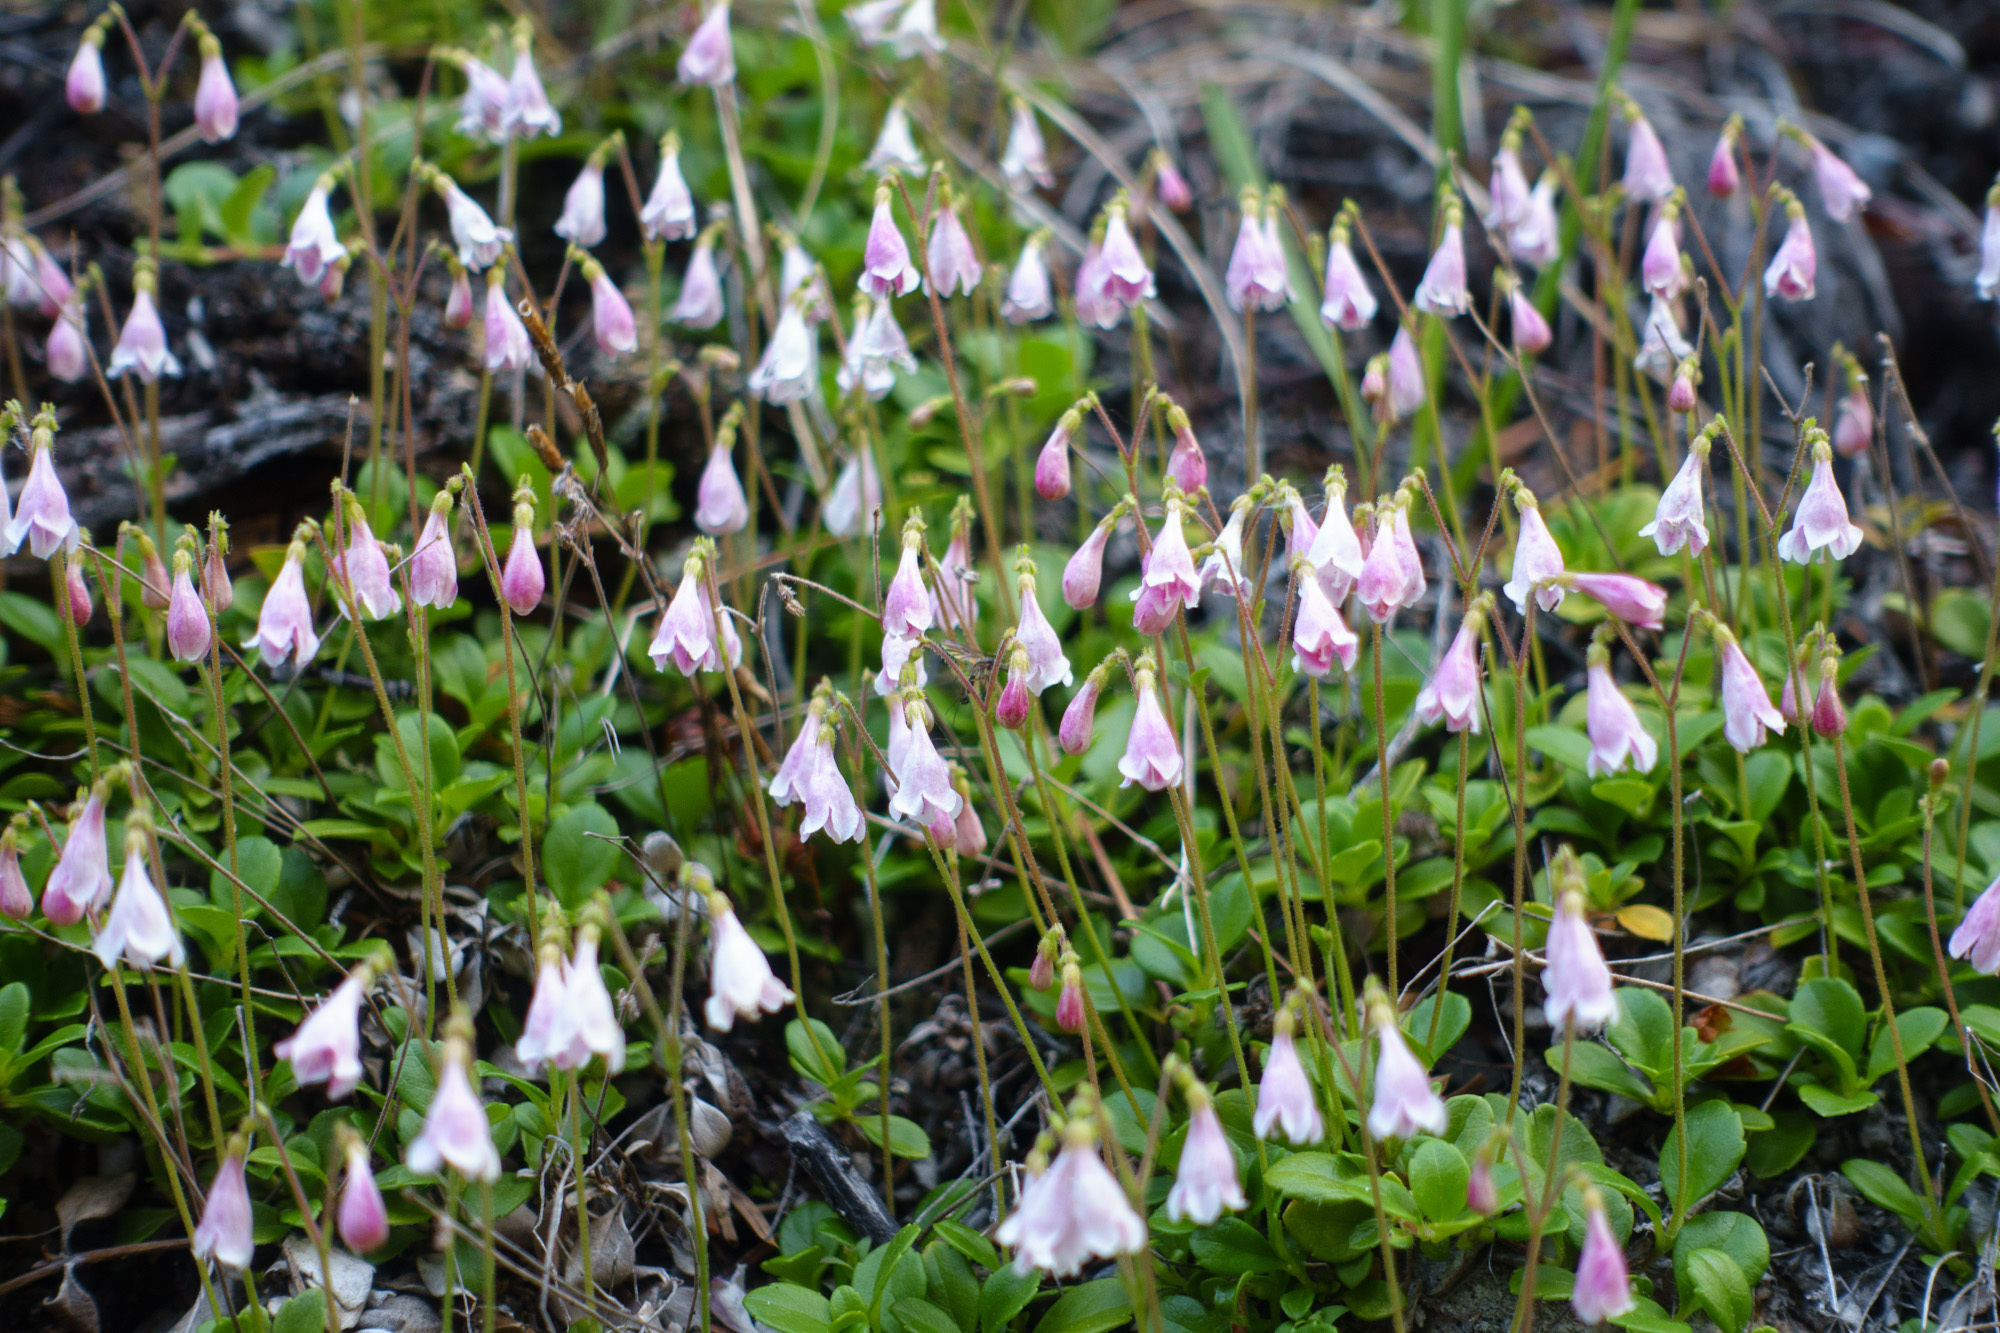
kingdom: Plantae
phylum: Tracheophyta
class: Magnoliopsida
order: Dipsacales
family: Caprifoliaceae
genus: Linnaea
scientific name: Linnaea borealis
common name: Twinflower
